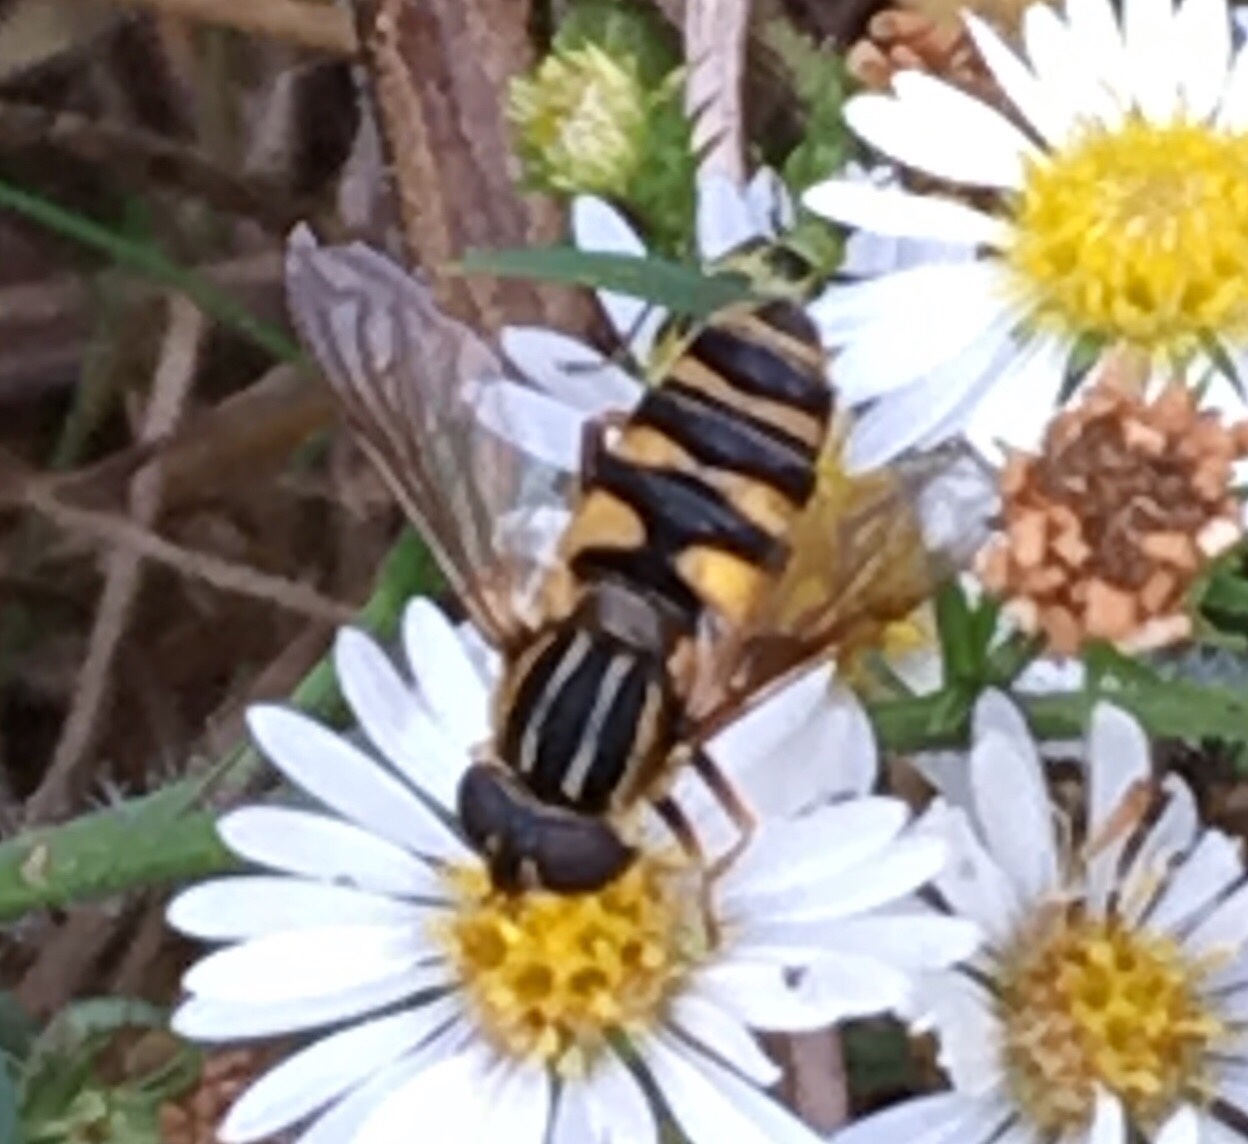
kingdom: Animalia
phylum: Arthropoda
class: Insecta
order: Diptera
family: Syrphidae
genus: Helophilus
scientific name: Helophilus fasciatus
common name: Narrow-headed marsh fly
